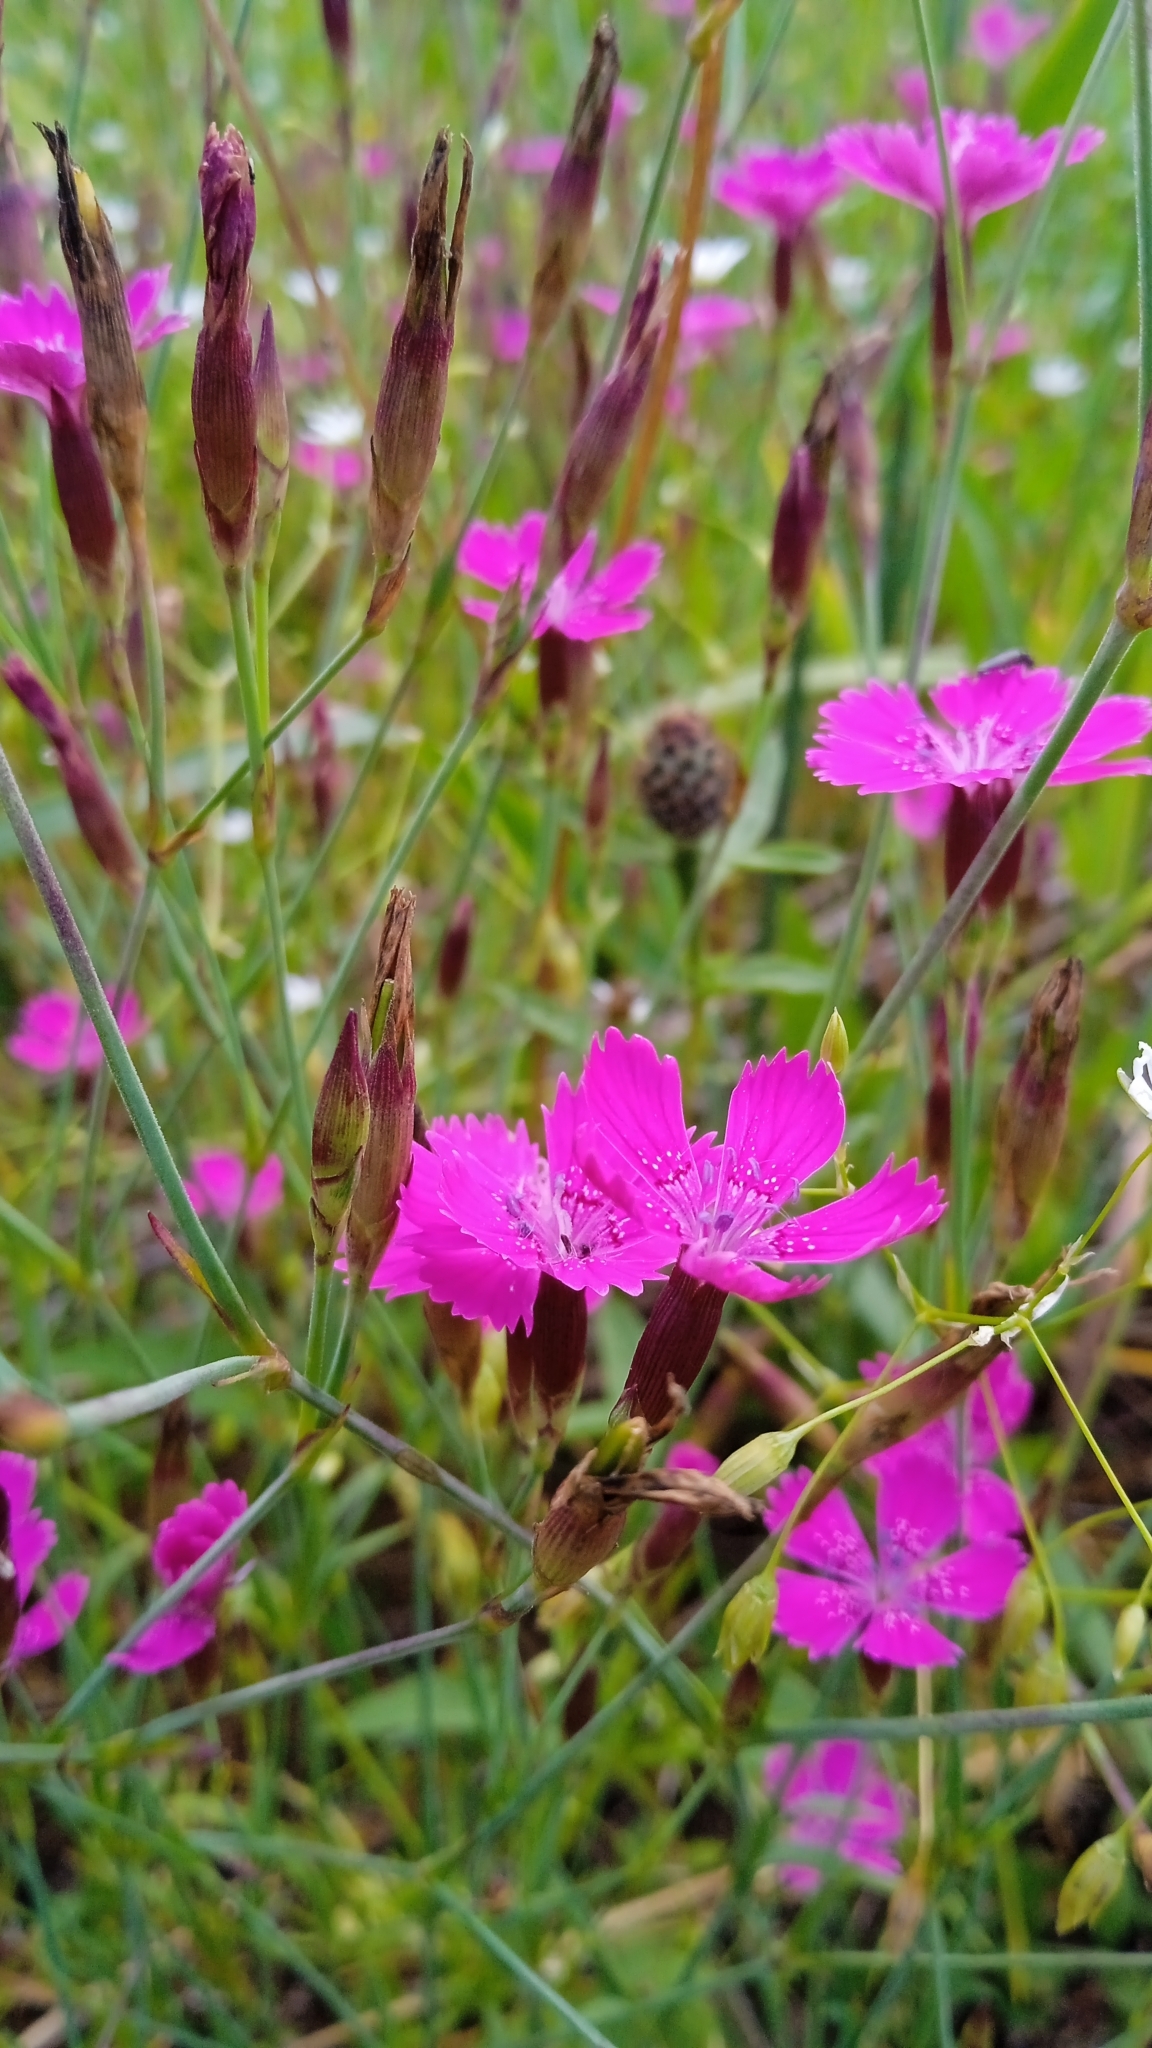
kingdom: Plantae
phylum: Tracheophyta
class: Magnoliopsida
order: Caryophyllales
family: Caryophyllaceae
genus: Dianthus
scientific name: Dianthus deltoides
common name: Maiden pink
